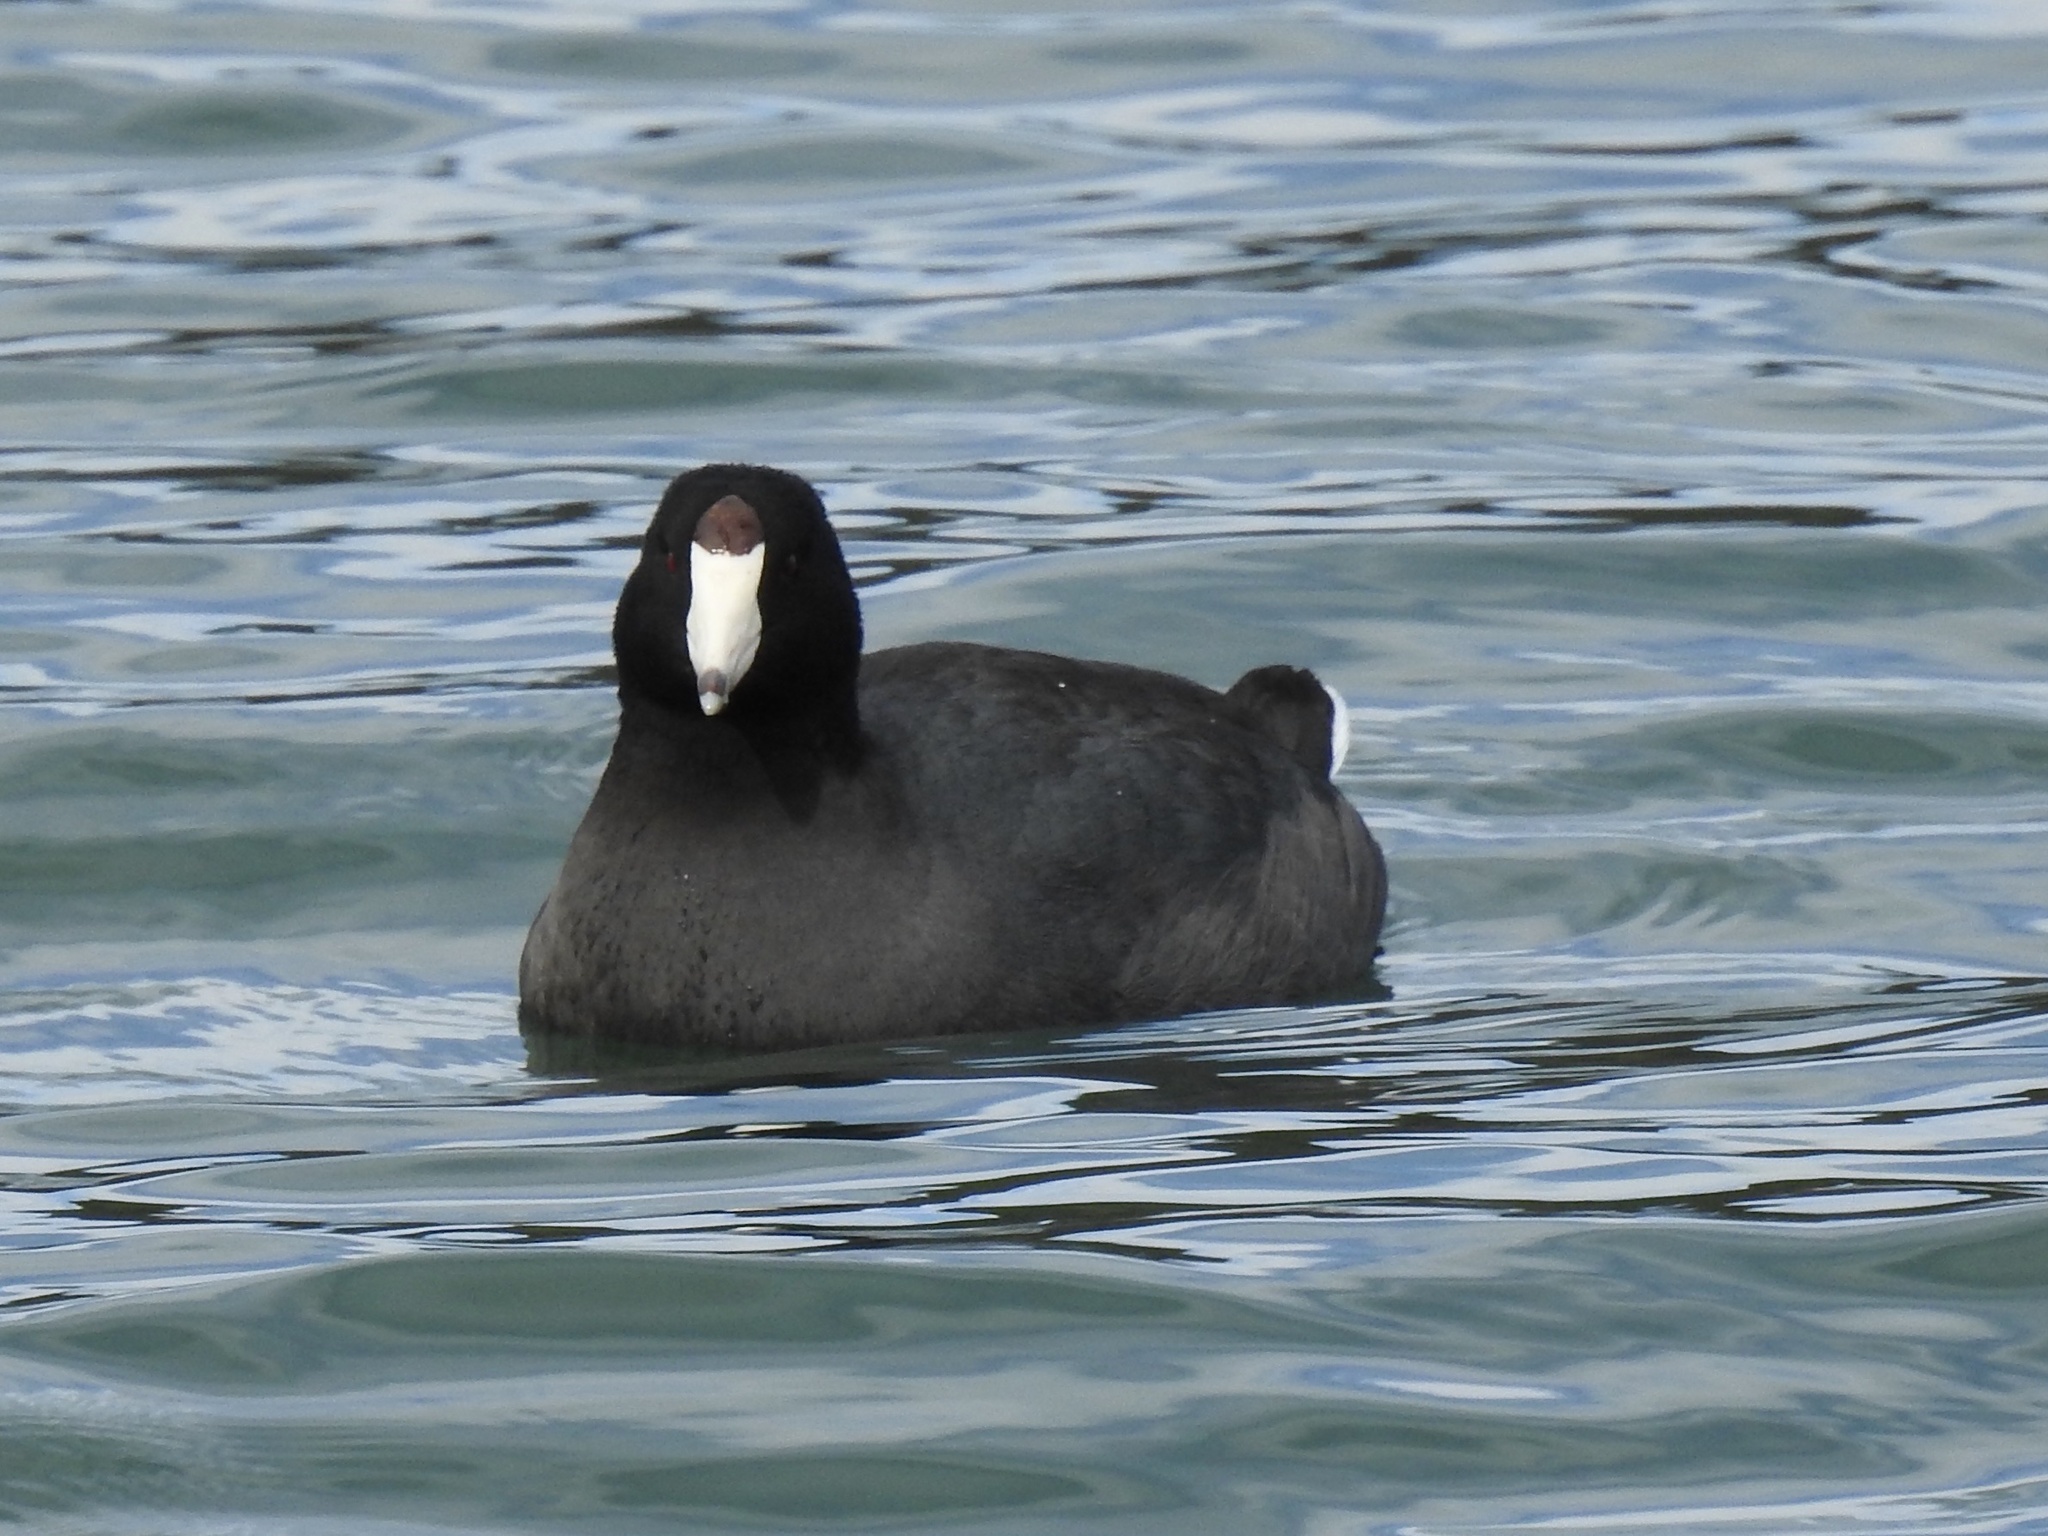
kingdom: Animalia
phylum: Chordata
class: Aves
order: Gruiformes
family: Rallidae
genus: Fulica
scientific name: Fulica americana
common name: American coot
